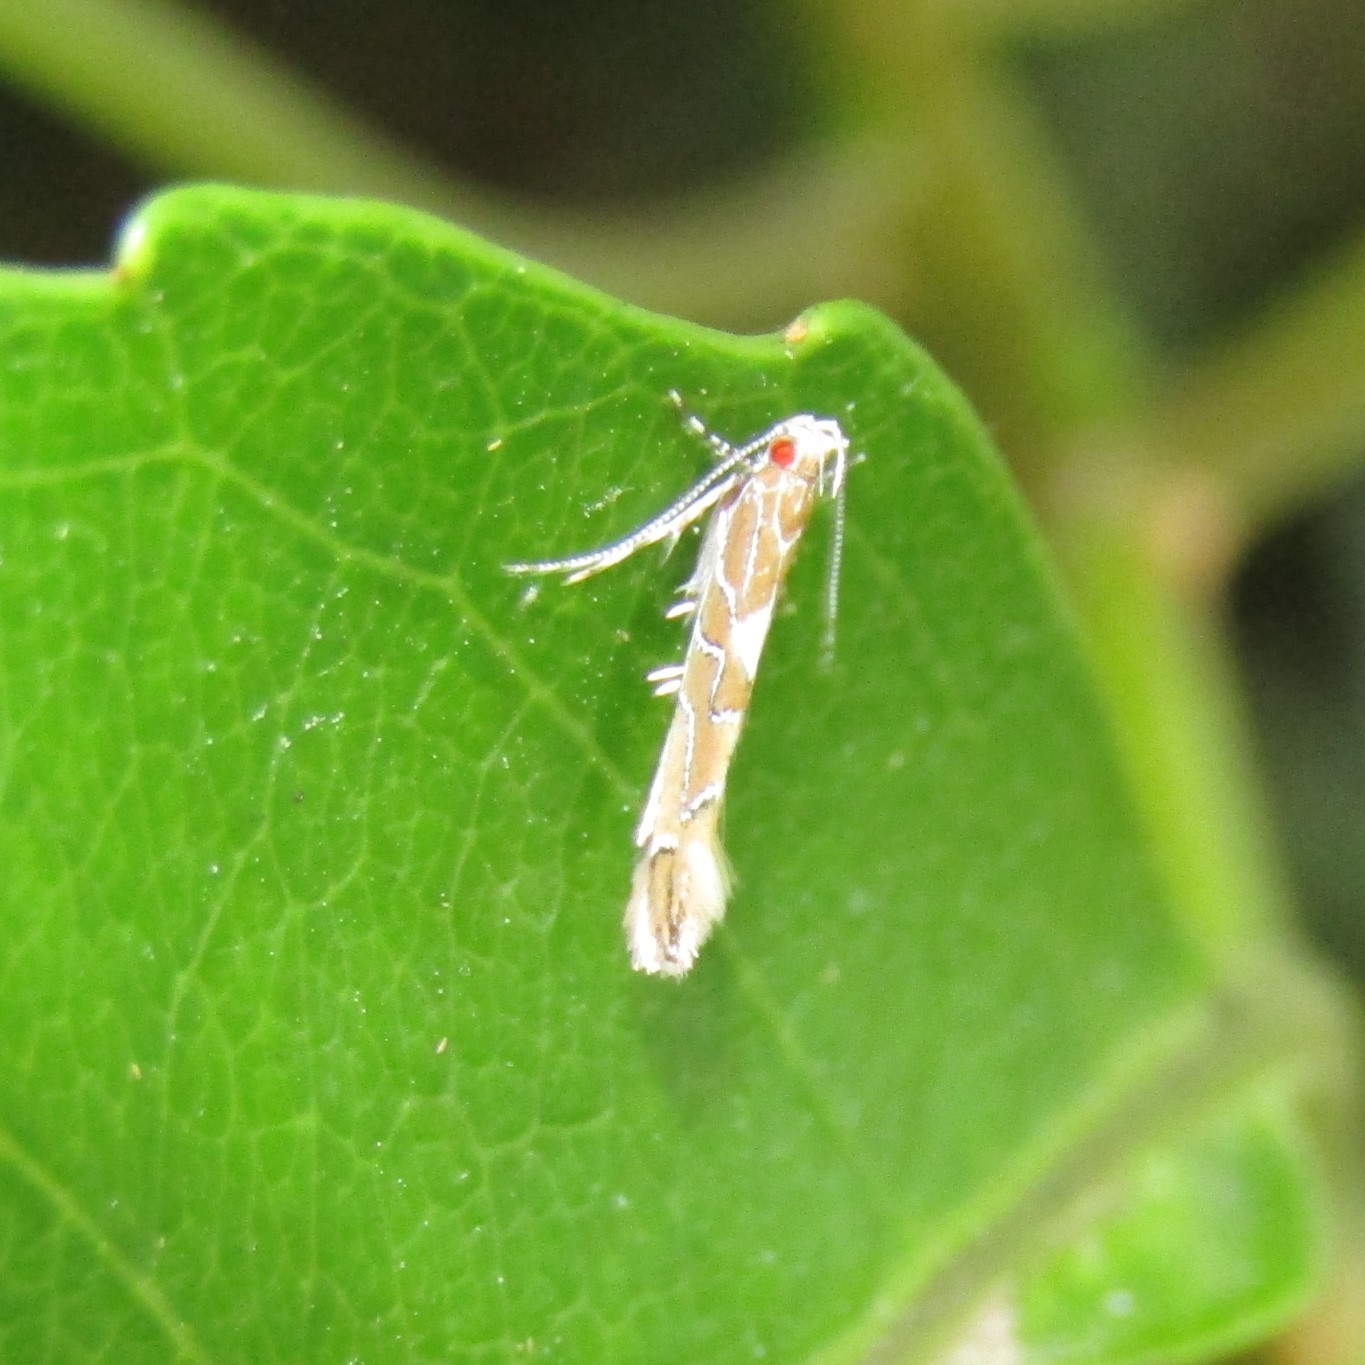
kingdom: Animalia
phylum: Arthropoda
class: Insecta
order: Lepidoptera
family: Cosmopterigidae
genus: Pyroderces
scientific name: Pyroderces apparitella
